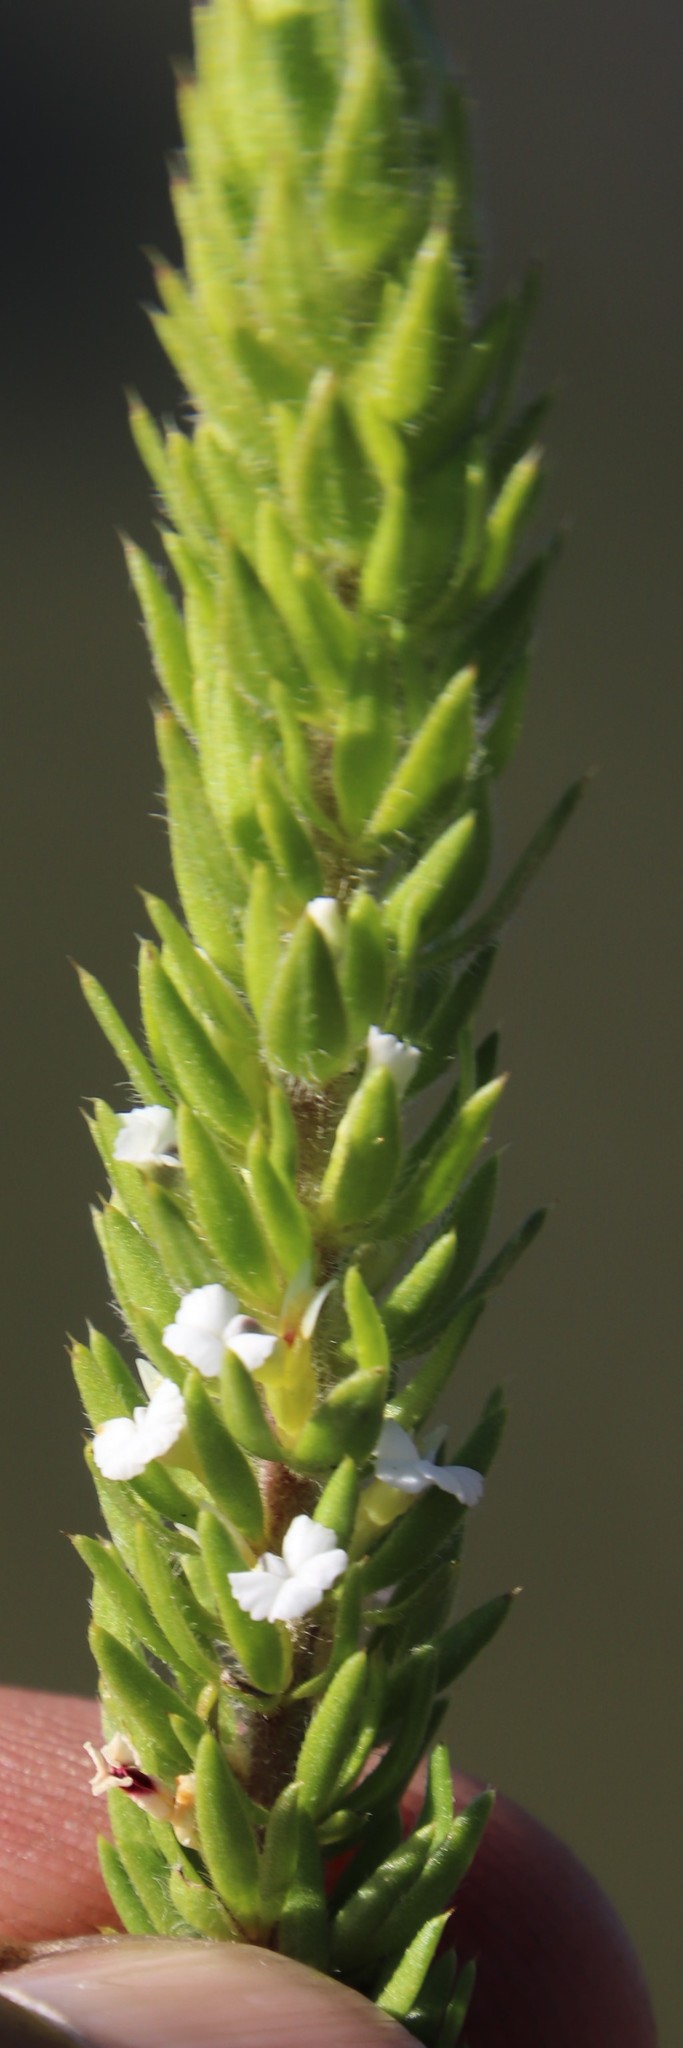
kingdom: Plantae
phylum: Tracheophyta
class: Magnoliopsida
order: Fabales
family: Polygalaceae
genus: Muraltia
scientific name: Muraltia alba
